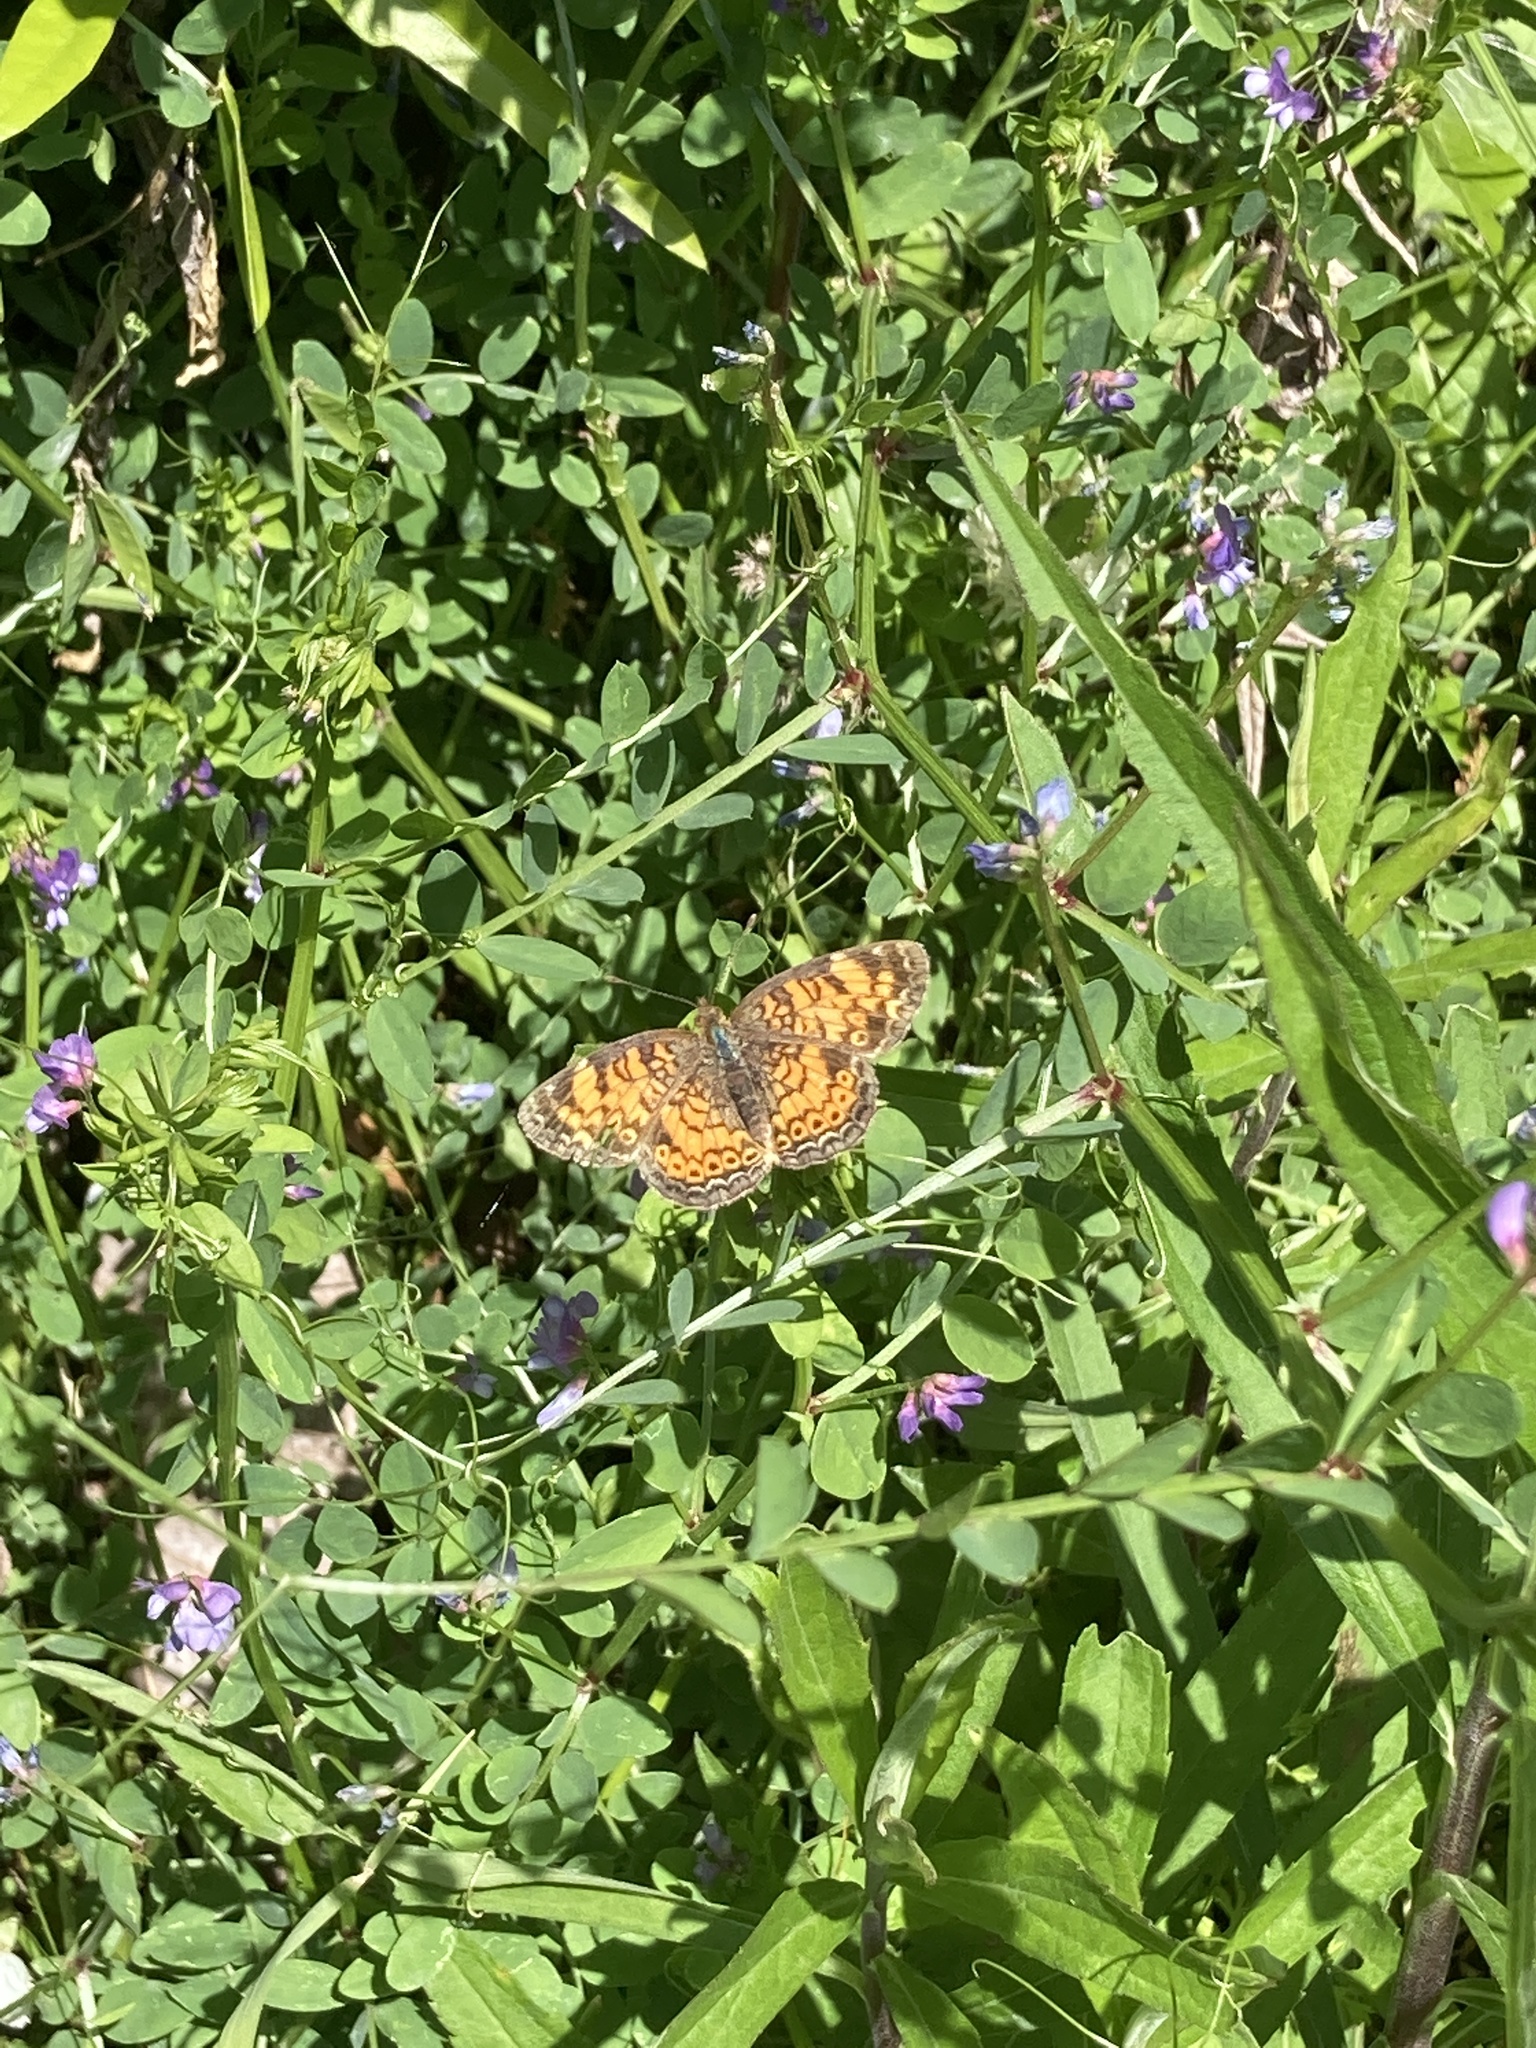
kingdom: Animalia
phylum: Arthropoda
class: Insecta
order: Lepidoptera
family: Nymphalidae
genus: Phyciodes
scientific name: Phyciodes tharos
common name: Pearl crescent
